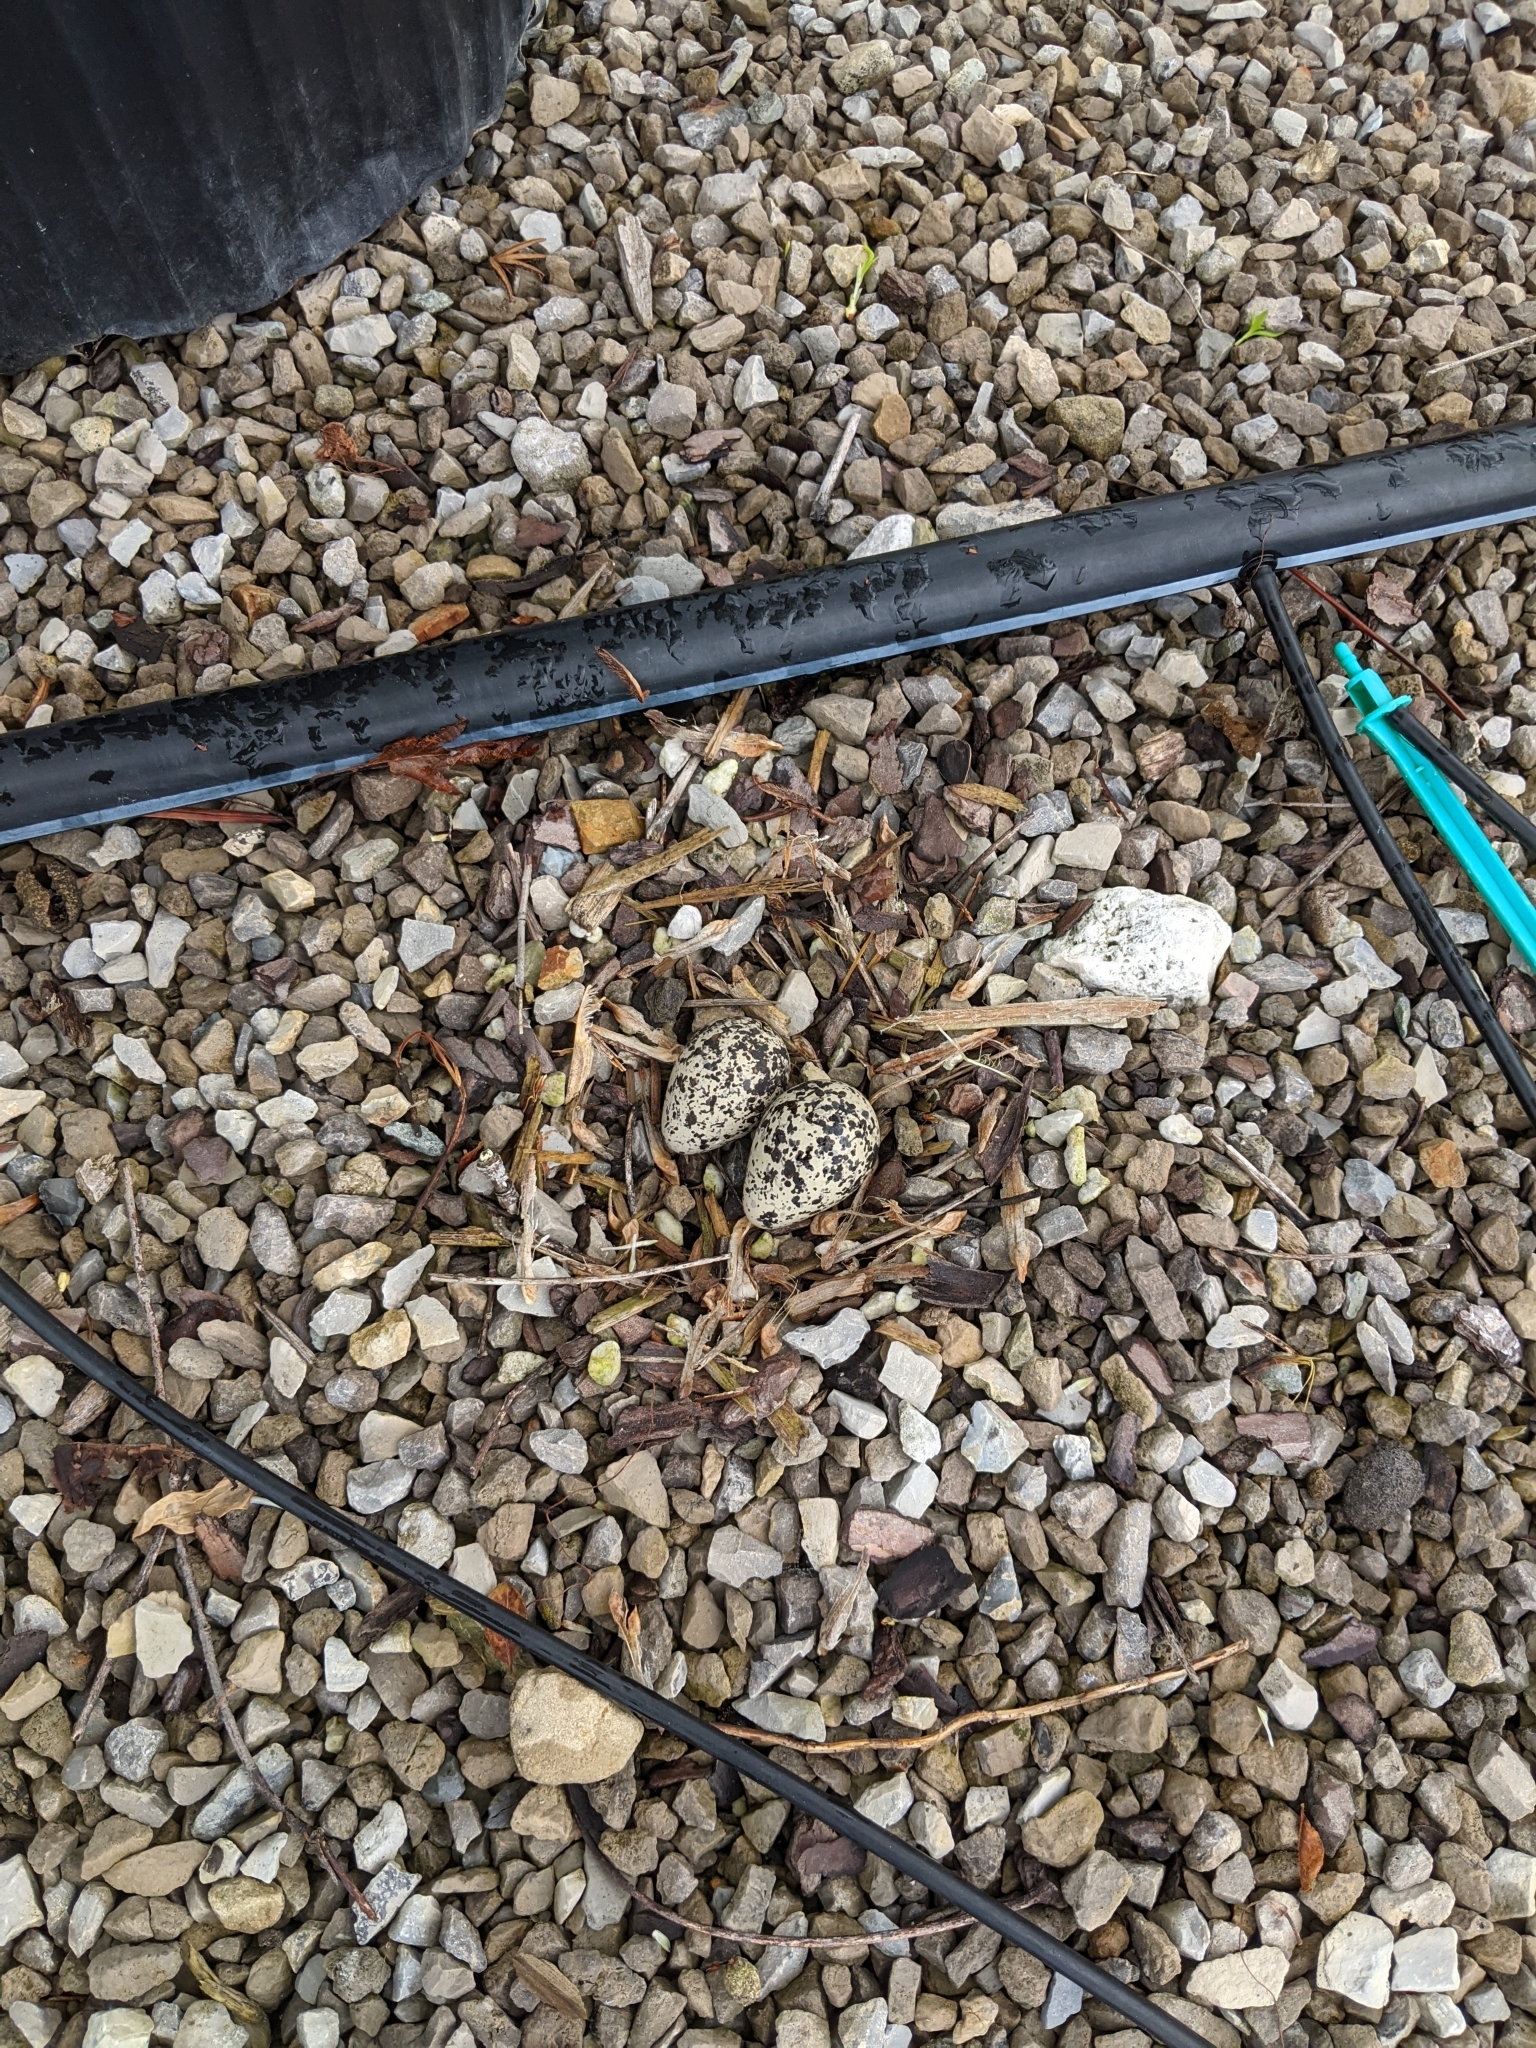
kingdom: Animalia
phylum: Chordata
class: Aves
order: Charadriiformes
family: Charadriidae
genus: Charadrius
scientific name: Charadrius vociferus
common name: Killdeer
